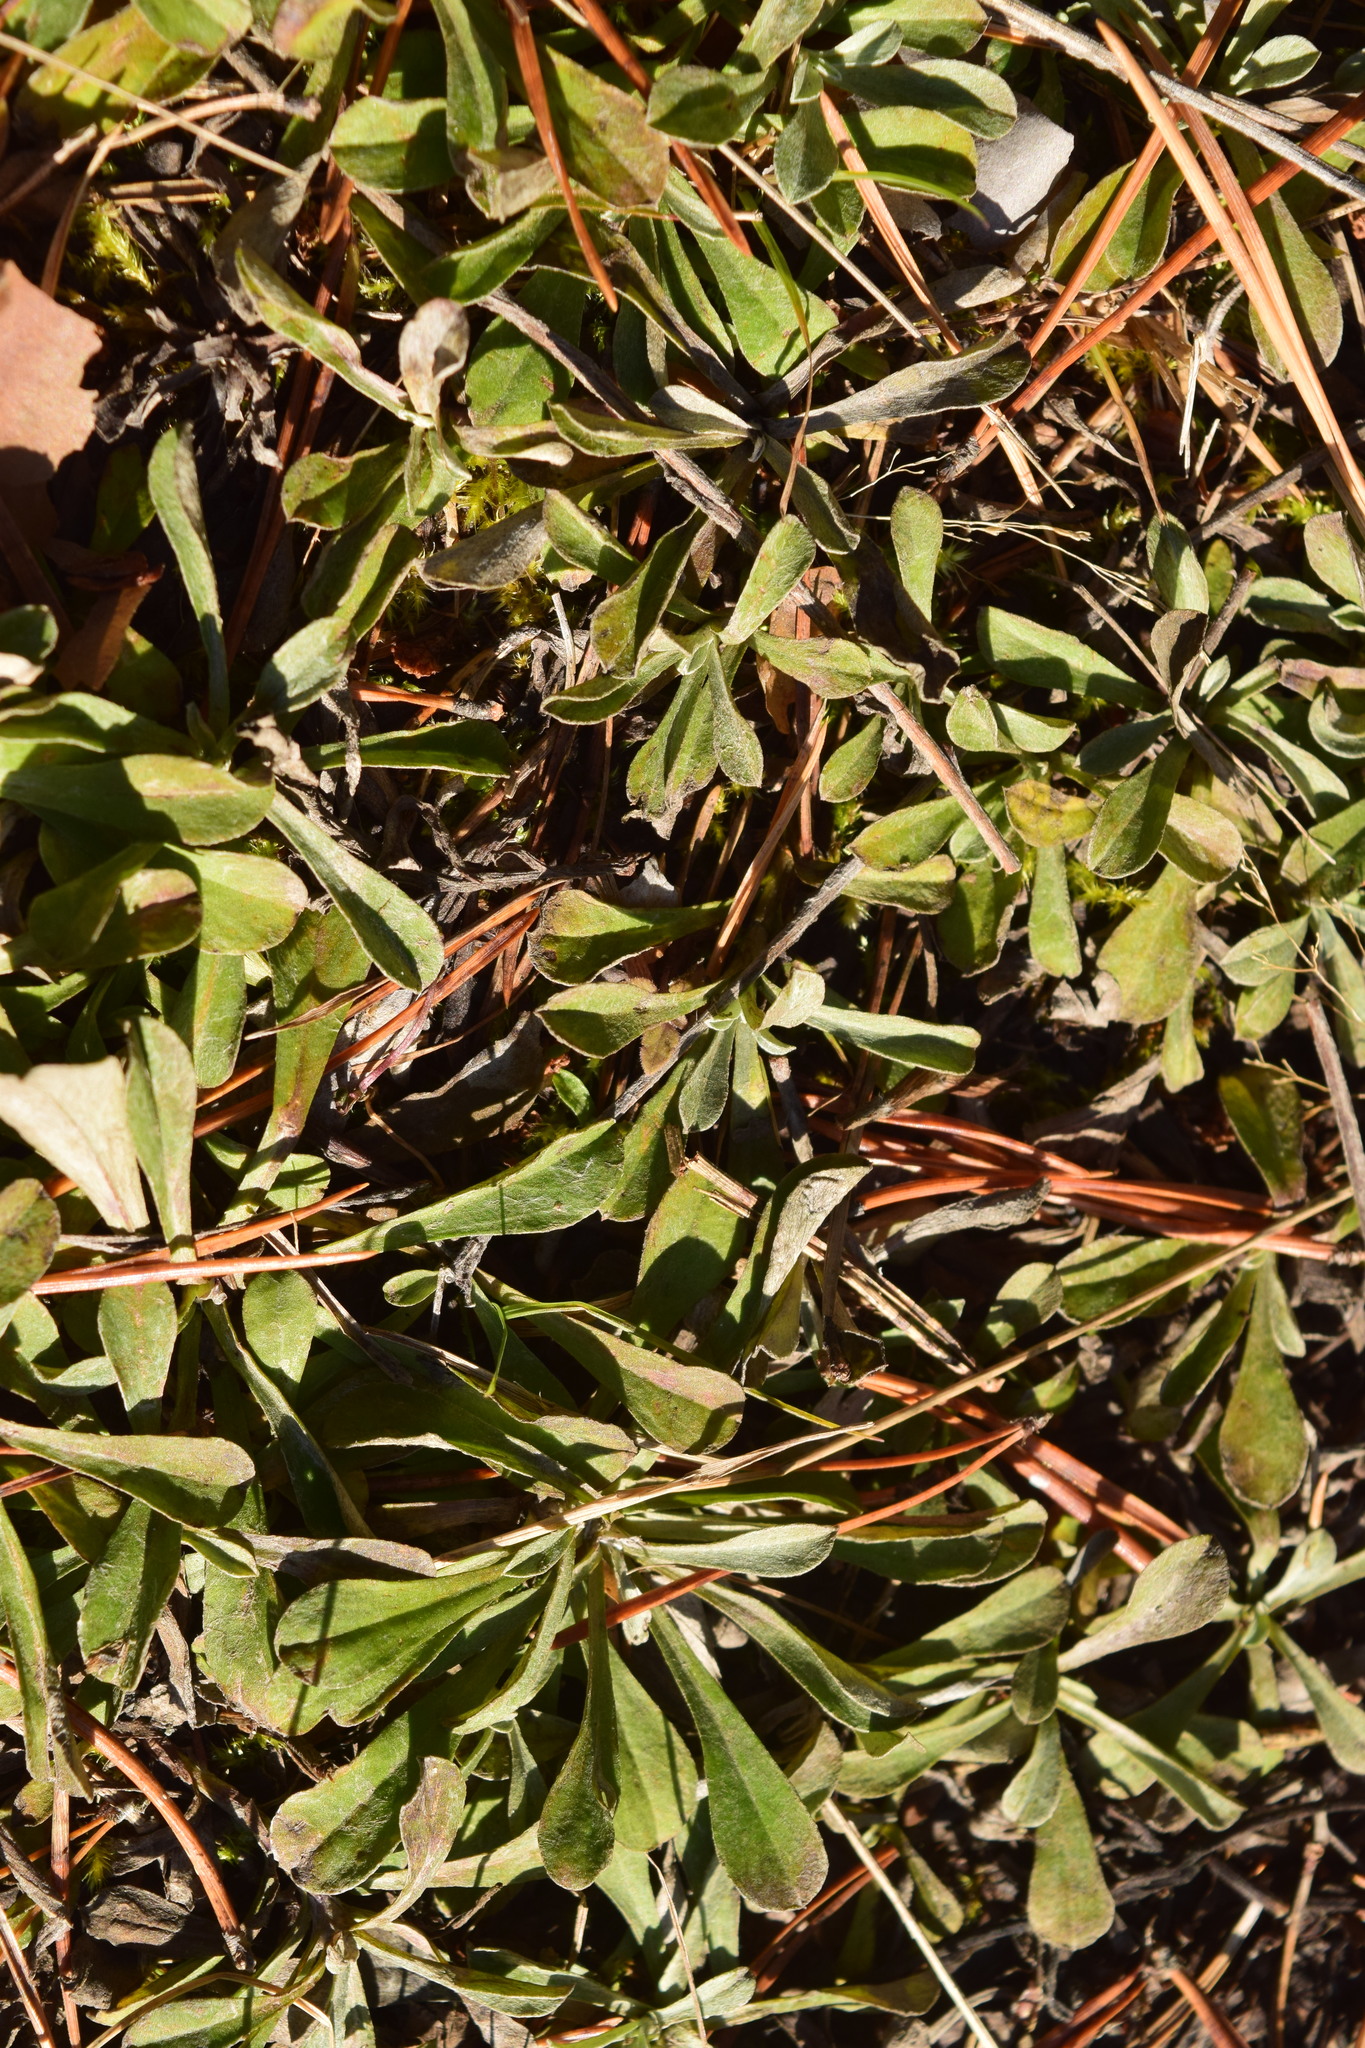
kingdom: Plantae
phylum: Tracheophyta
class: Magnoliopsida
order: Asterales
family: Asteraceae
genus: Antennaria
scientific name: Antennaria dioica
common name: Mountain everlasting
